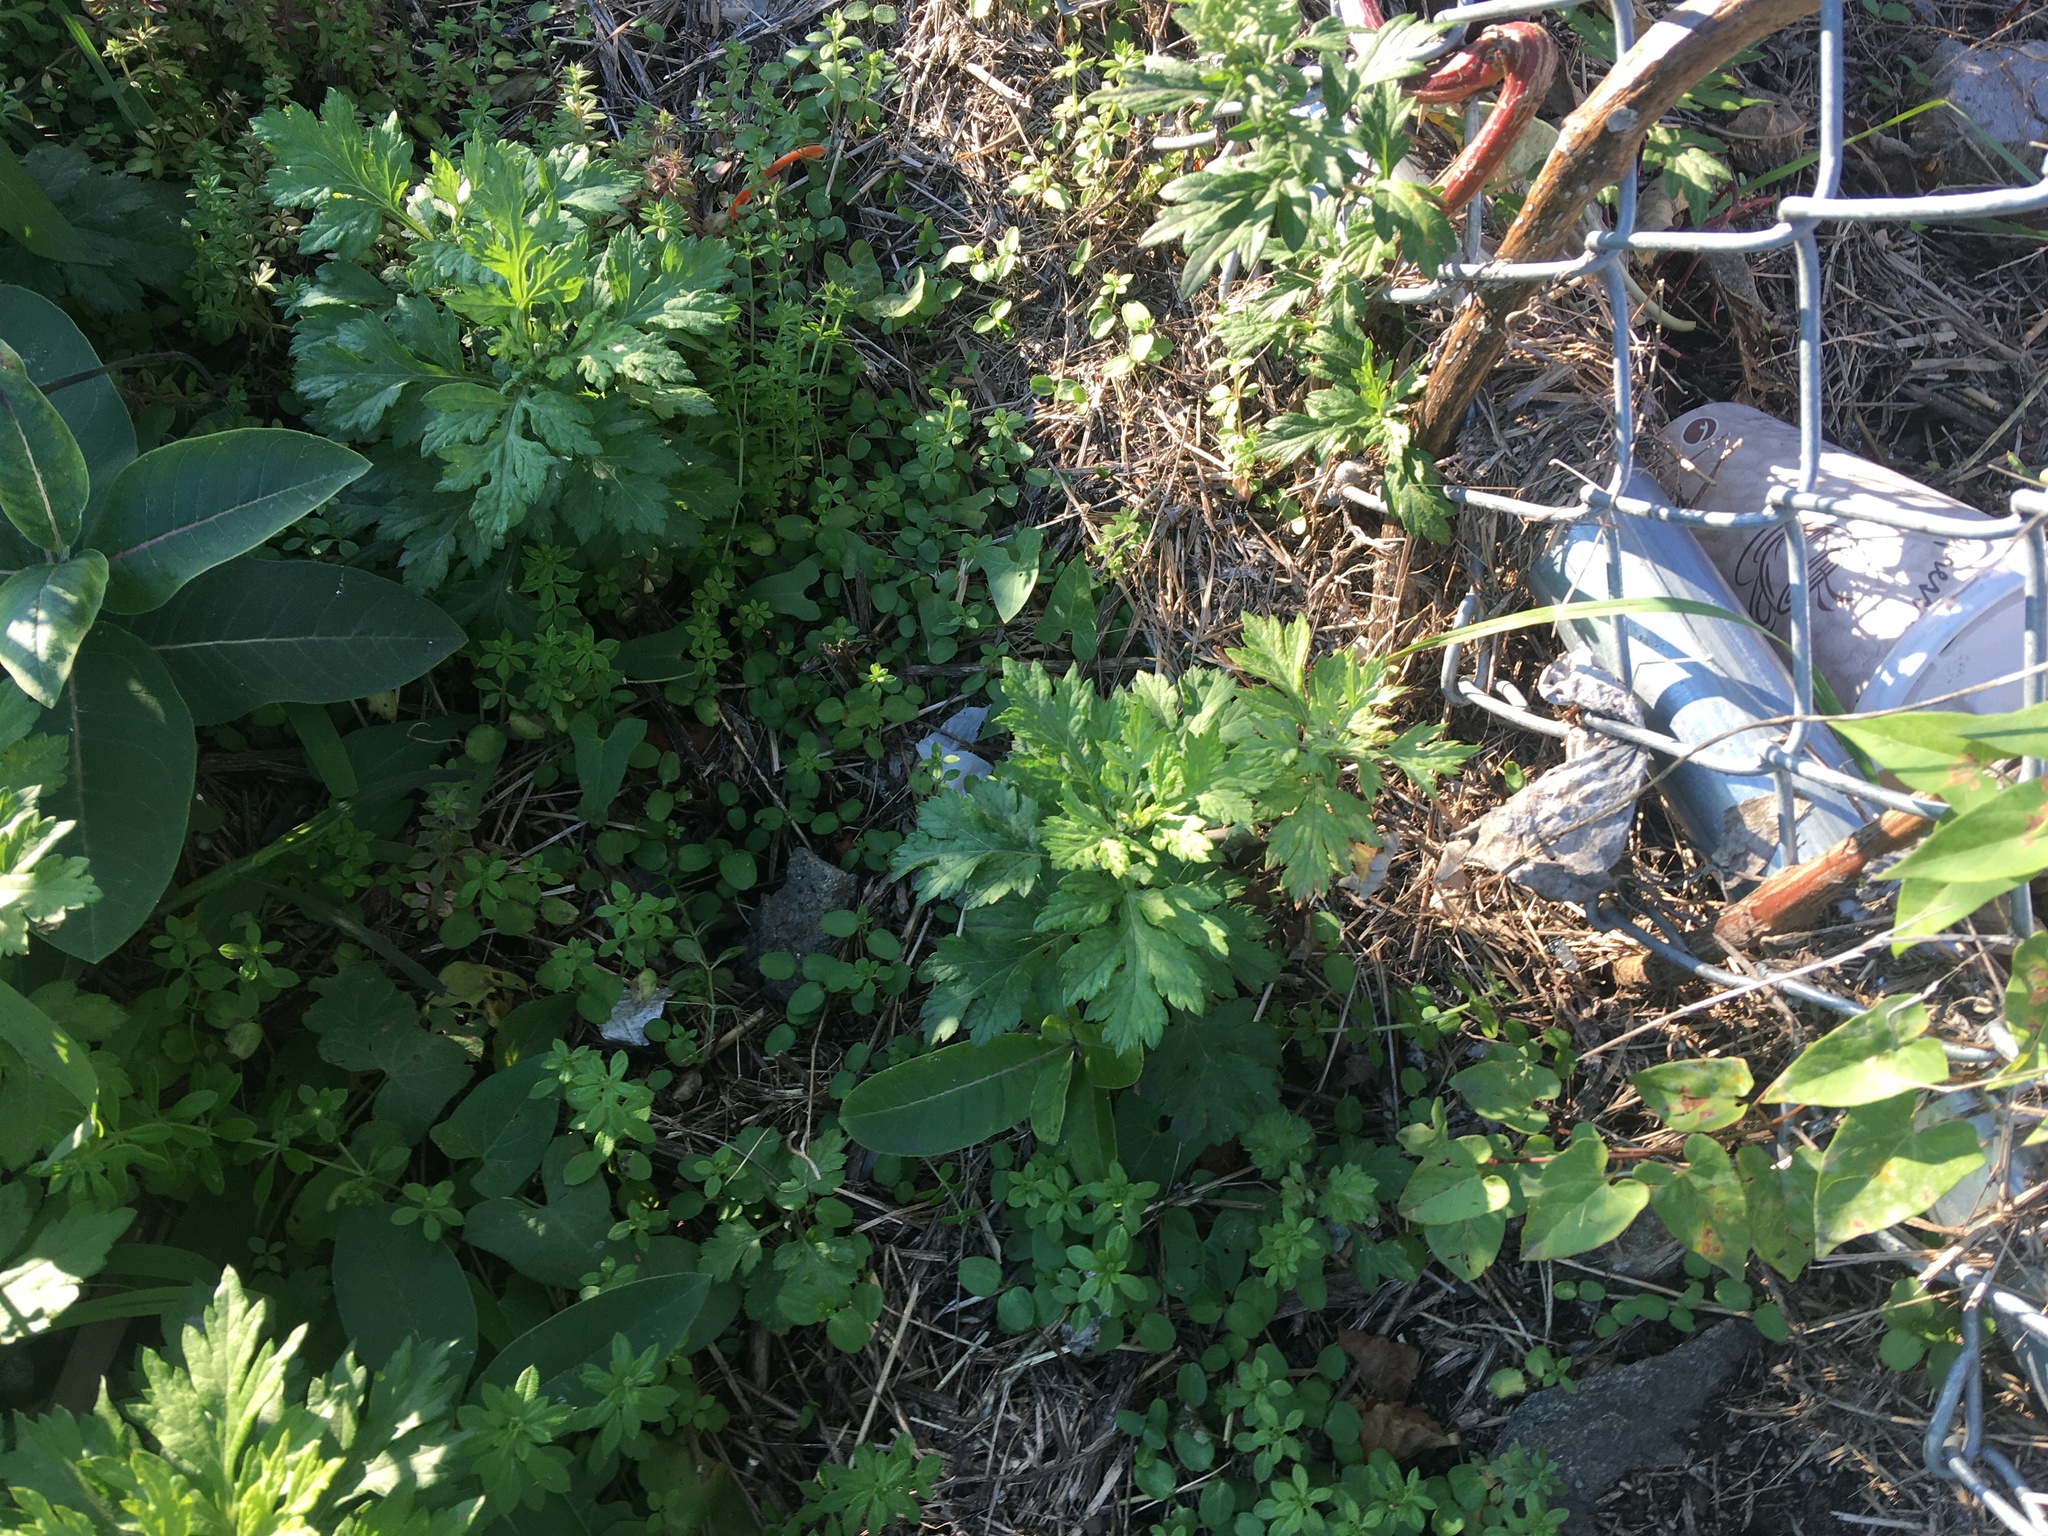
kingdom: Plantae
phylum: Tracheophyta
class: Magnoliopsida
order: Asterales
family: Asteraceae
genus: Artemisia
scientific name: Artemisia vulgaris
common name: Mugwort
